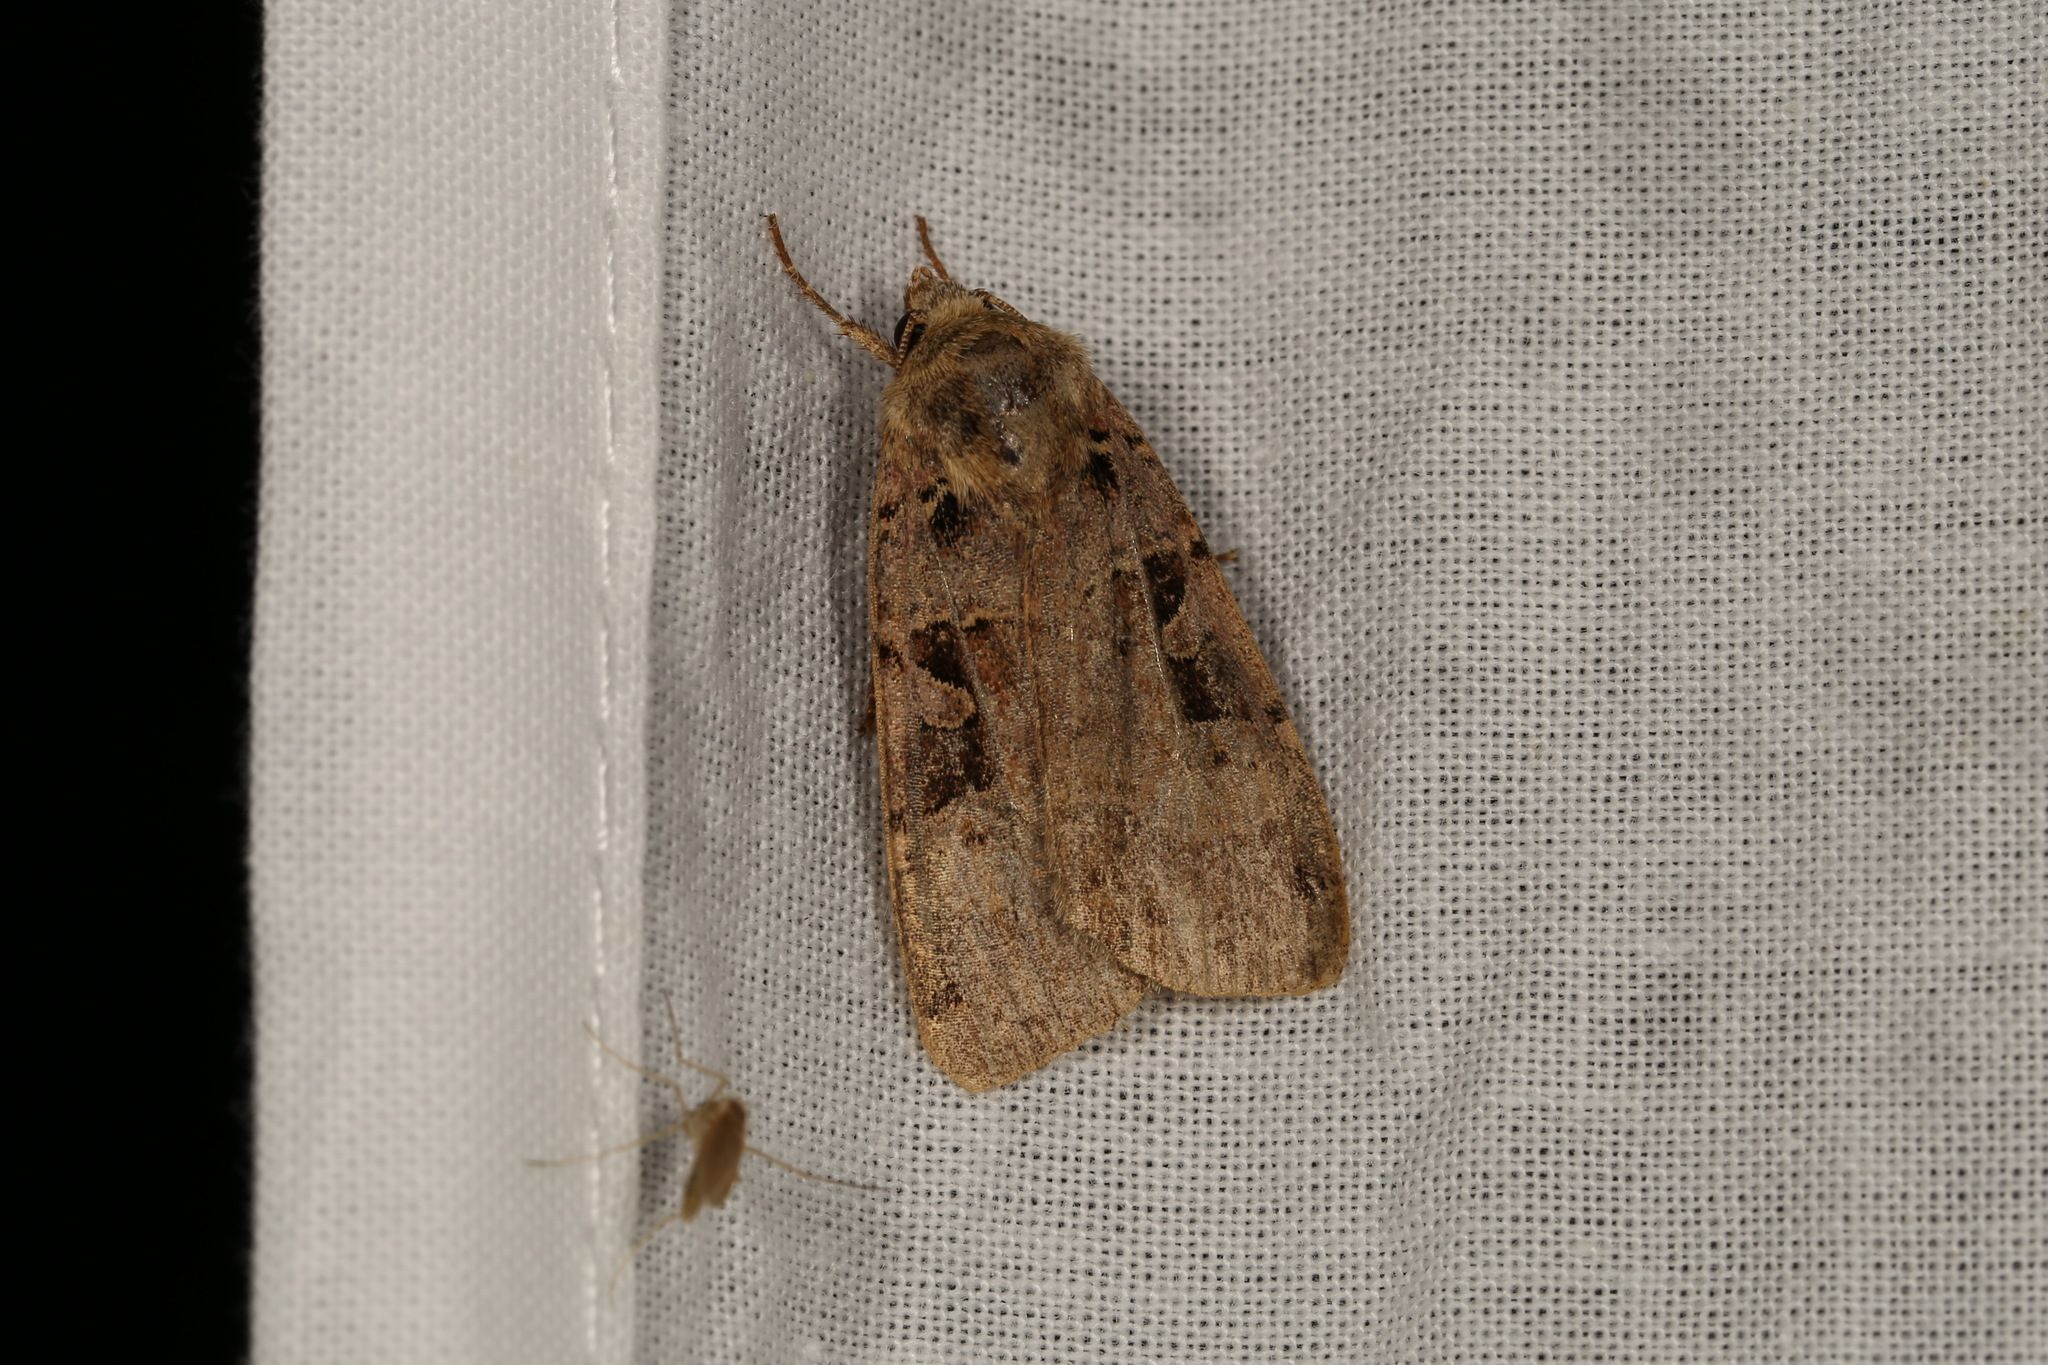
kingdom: Animalia
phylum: Arthropoda
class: Insecta
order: Lepidoptera
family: Noctuidae
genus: Xestia
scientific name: Xestia triangulum
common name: Double square-spot
